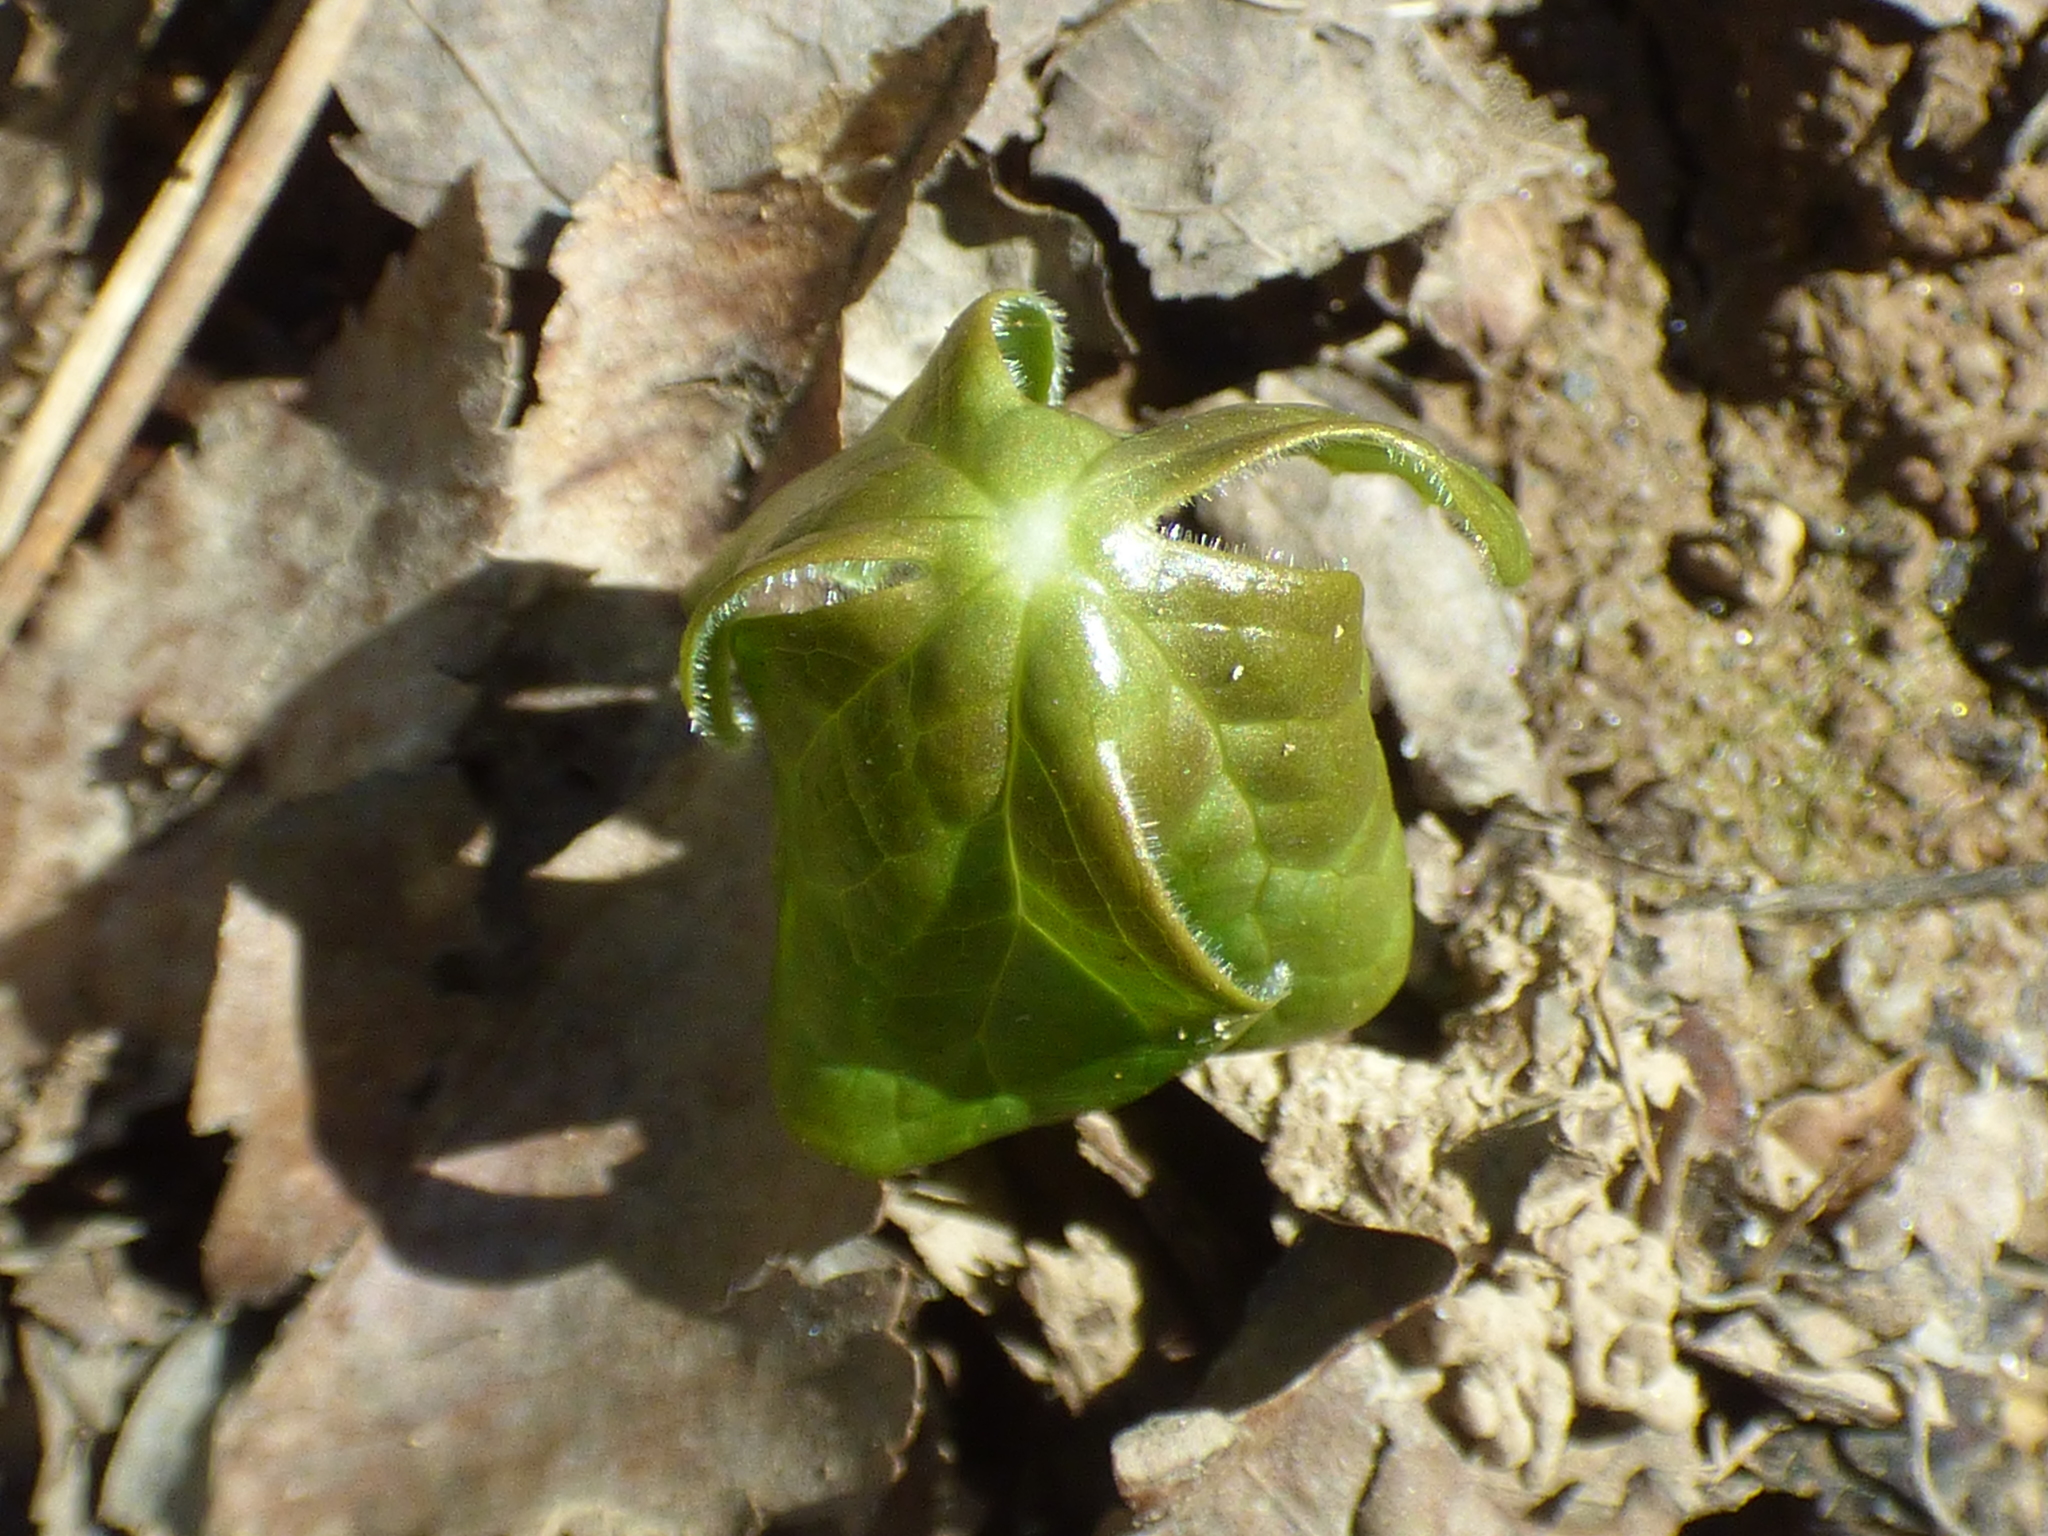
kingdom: Plantae
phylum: Tracheophyta
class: Magnoliopsida
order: Ranunculales
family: Berberidaceae
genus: Podophyllum
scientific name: Podophyllum peltatum
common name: Wild mandrake
